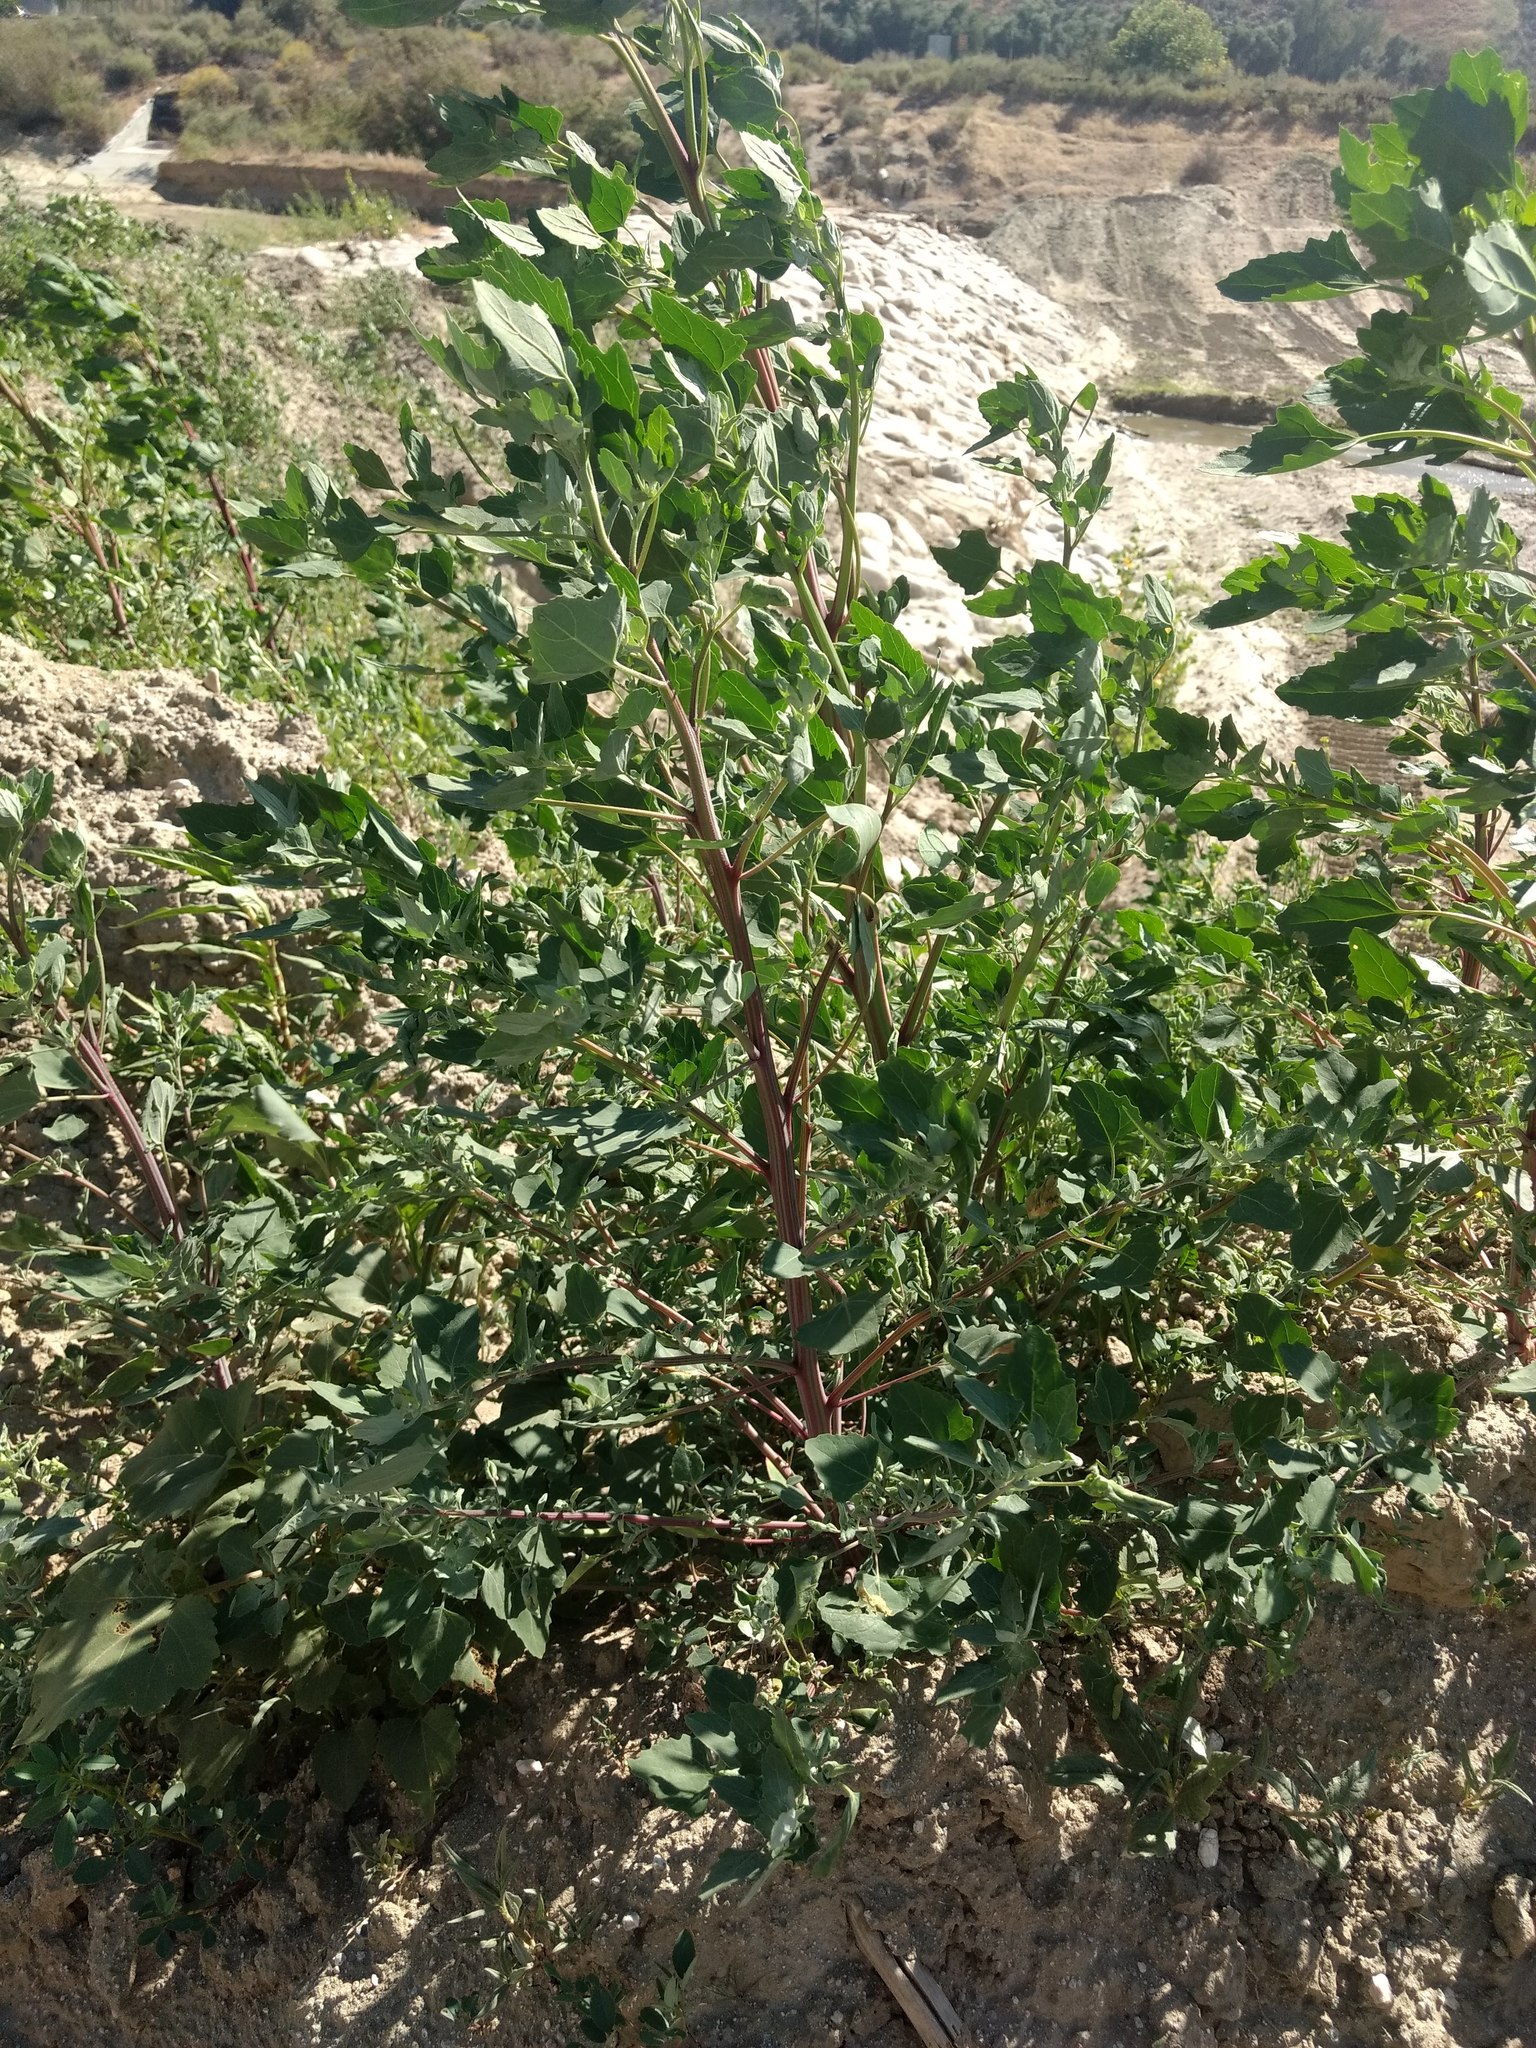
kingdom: Plantae
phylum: Tracheophyta
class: Magnoliopsida
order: Caryophyllales
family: Amaranthaceae
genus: Chenopodium
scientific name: Chenopodium album
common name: Fat-hen
